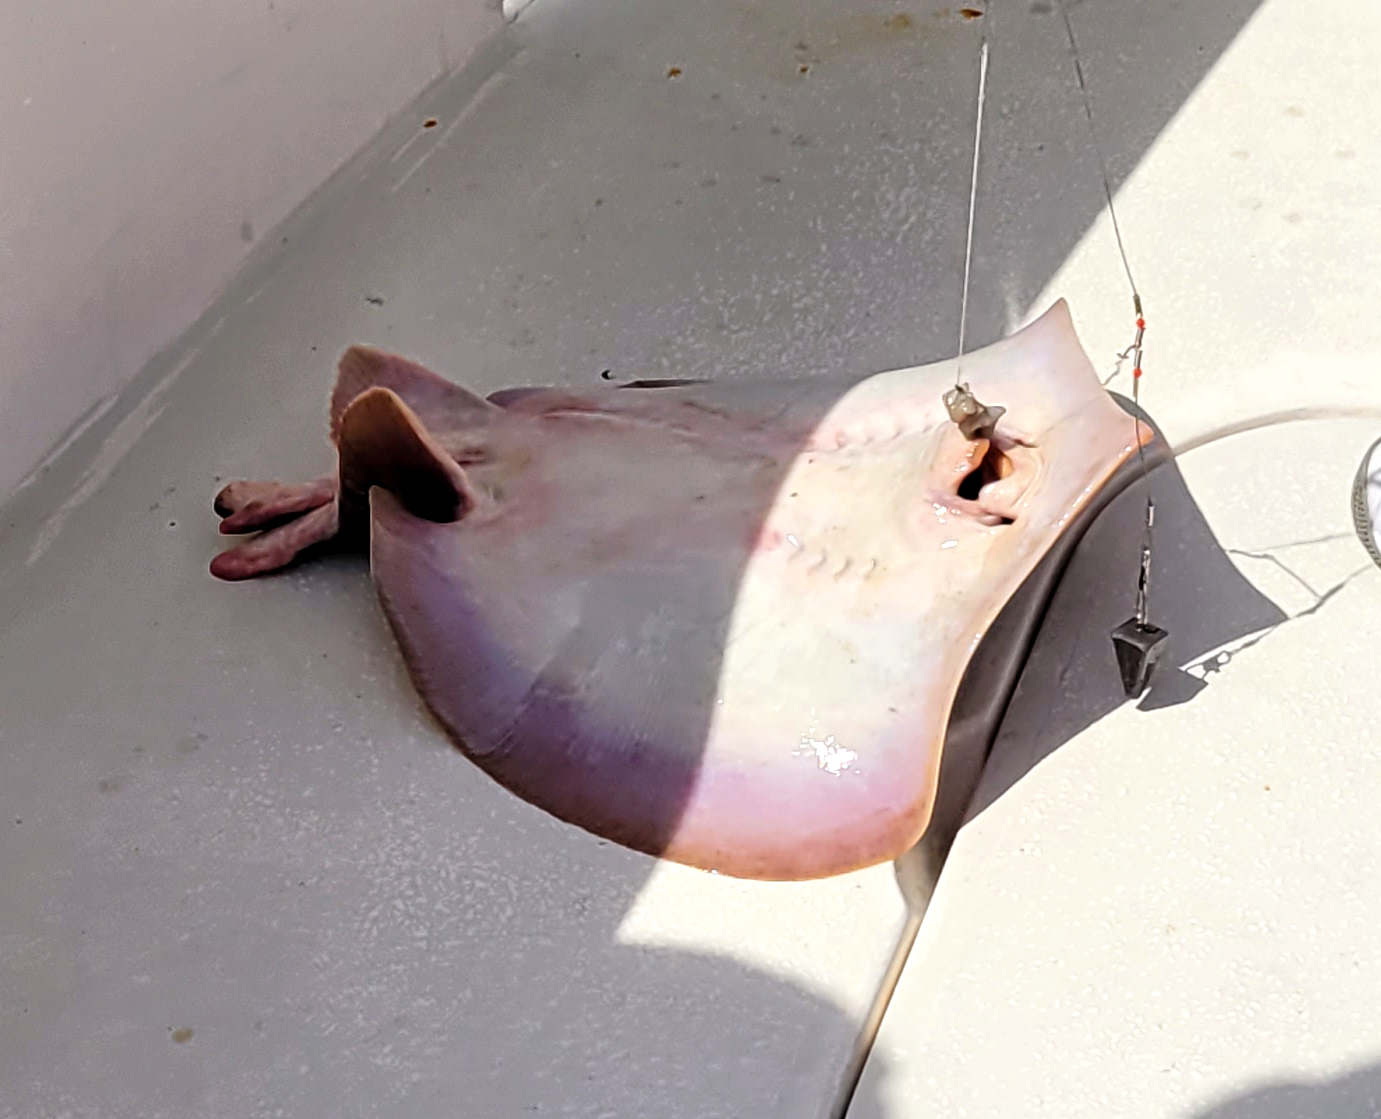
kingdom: Animalia
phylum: Chordata
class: Elasmobranchii
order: Myliobatiformes
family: Dasyatidae
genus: Hypanus
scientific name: Hypanus sabinus
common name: Atlantic stingray
